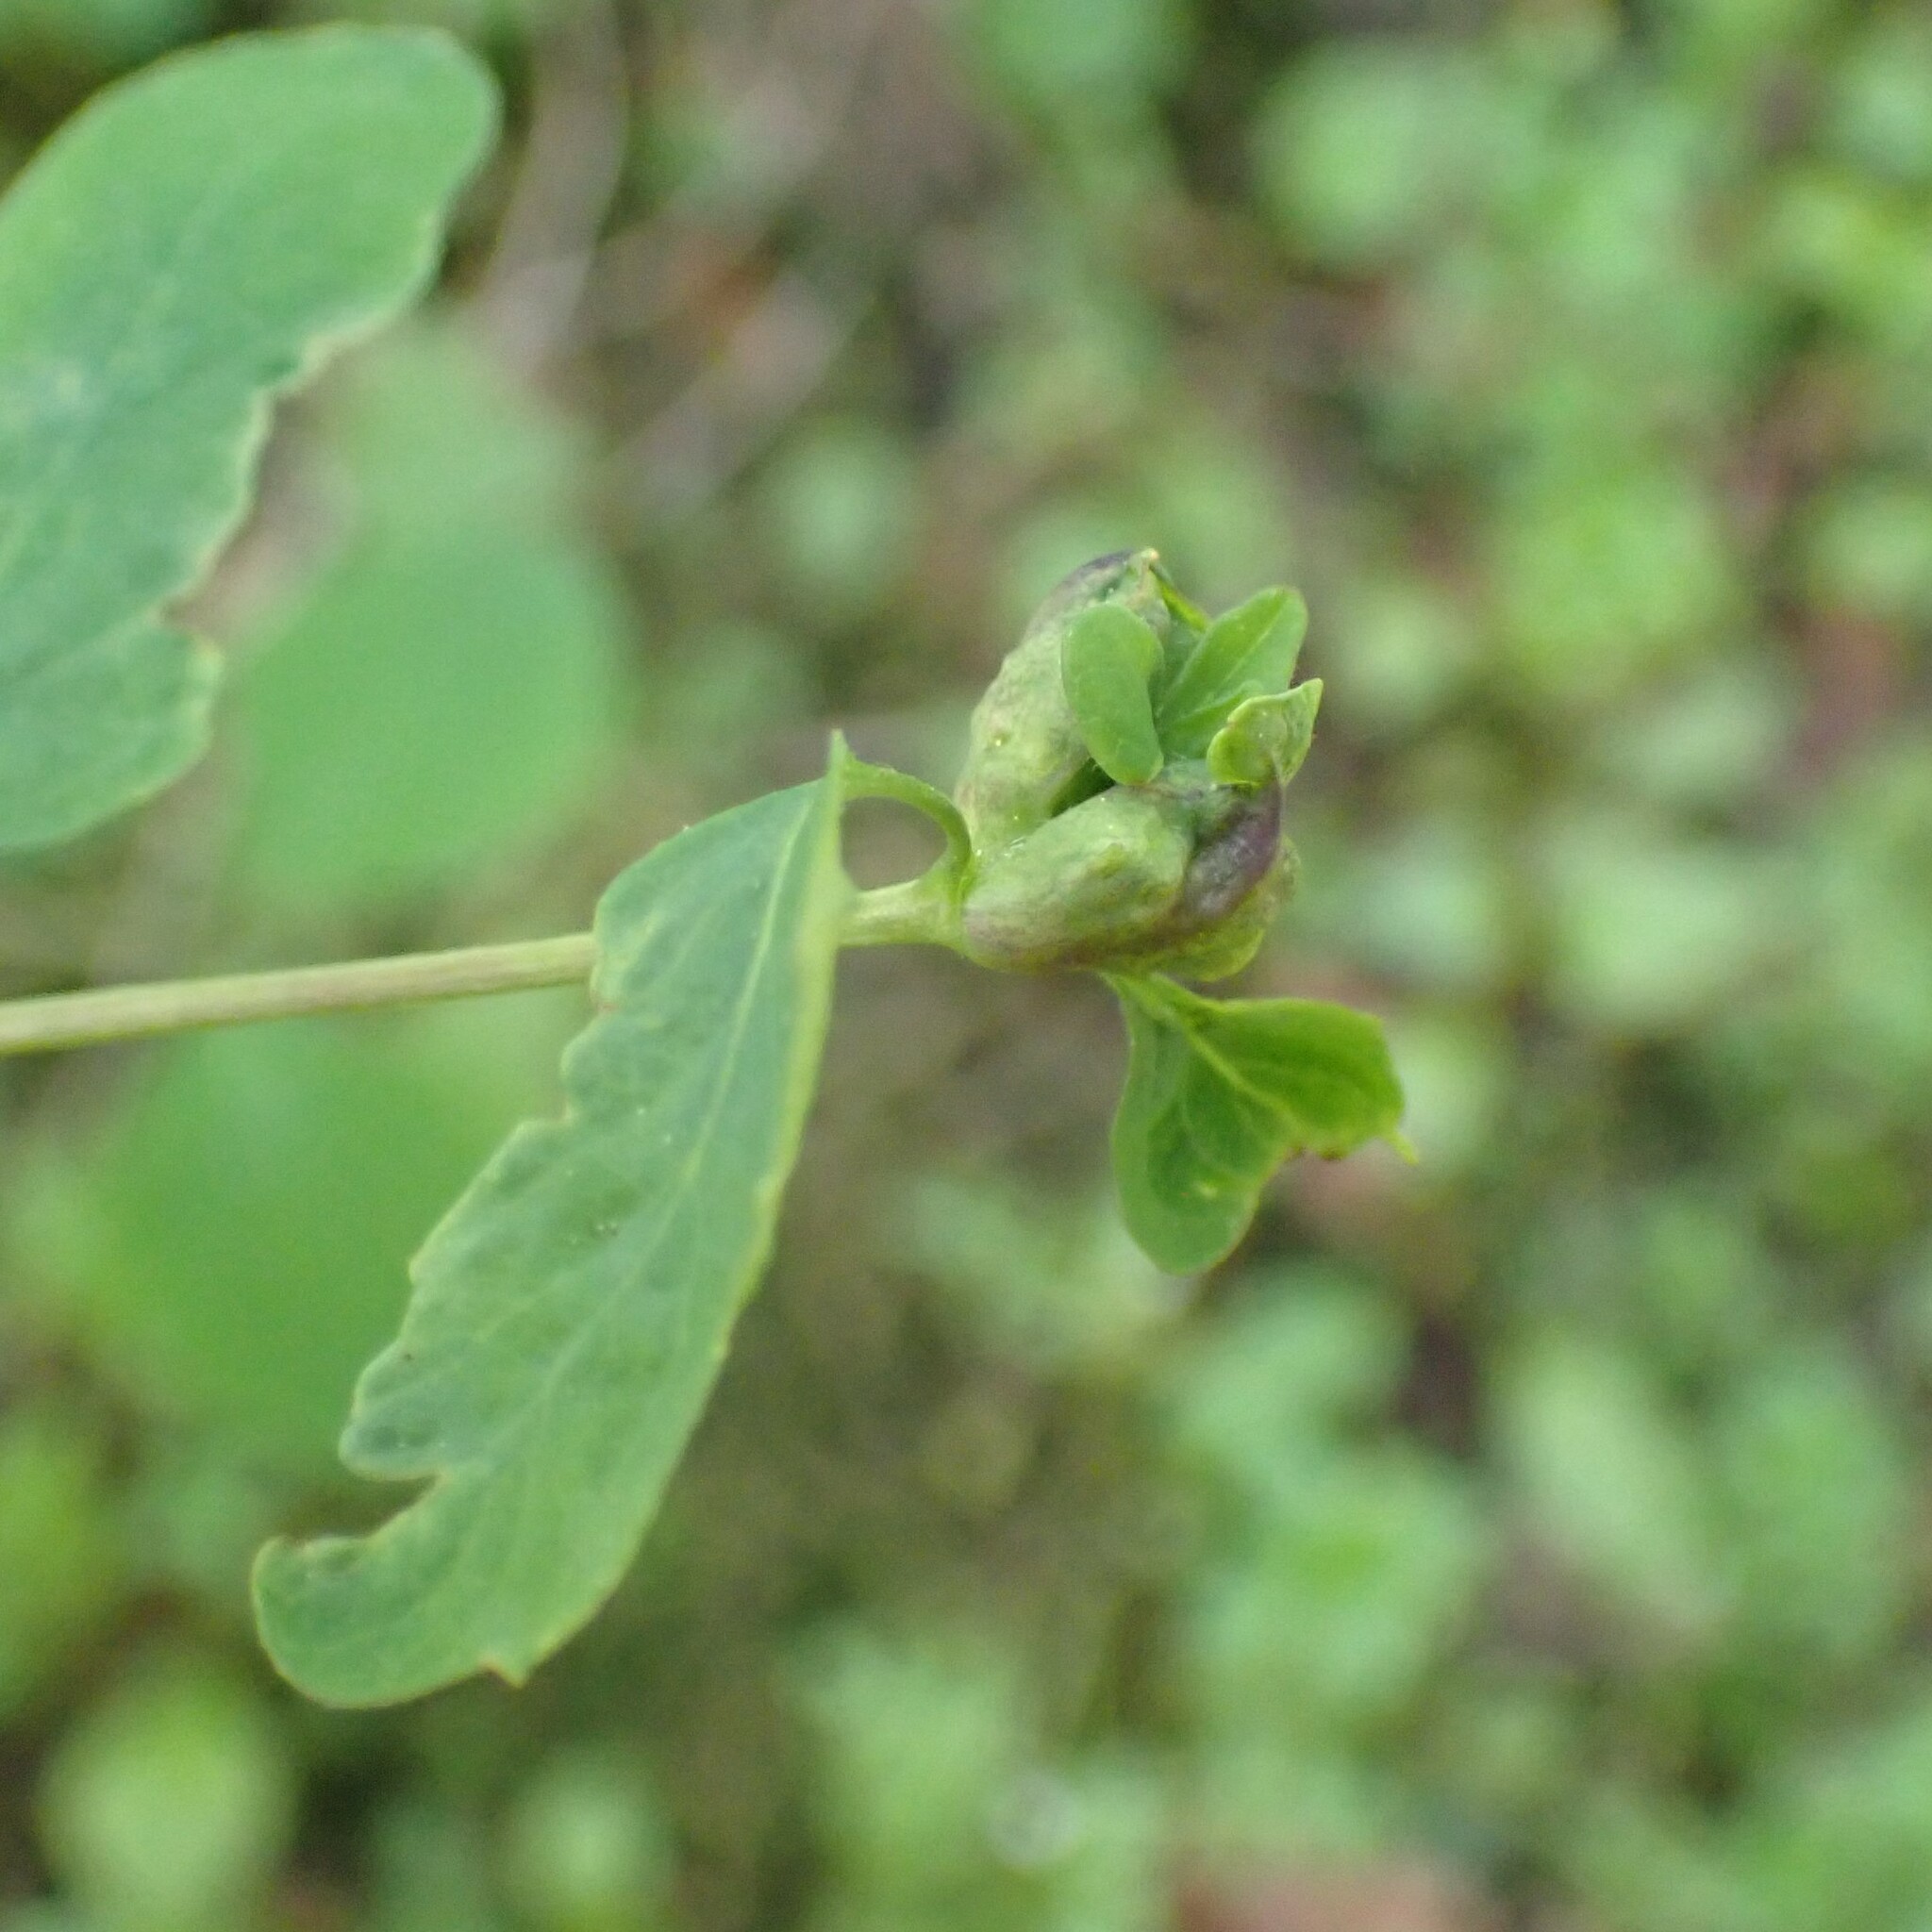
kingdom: Animalia
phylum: Arthropoda
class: Insecta
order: Hymenoptera
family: Tenthredinidae
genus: Blennogeneris
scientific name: Blennogeneris spissipes
